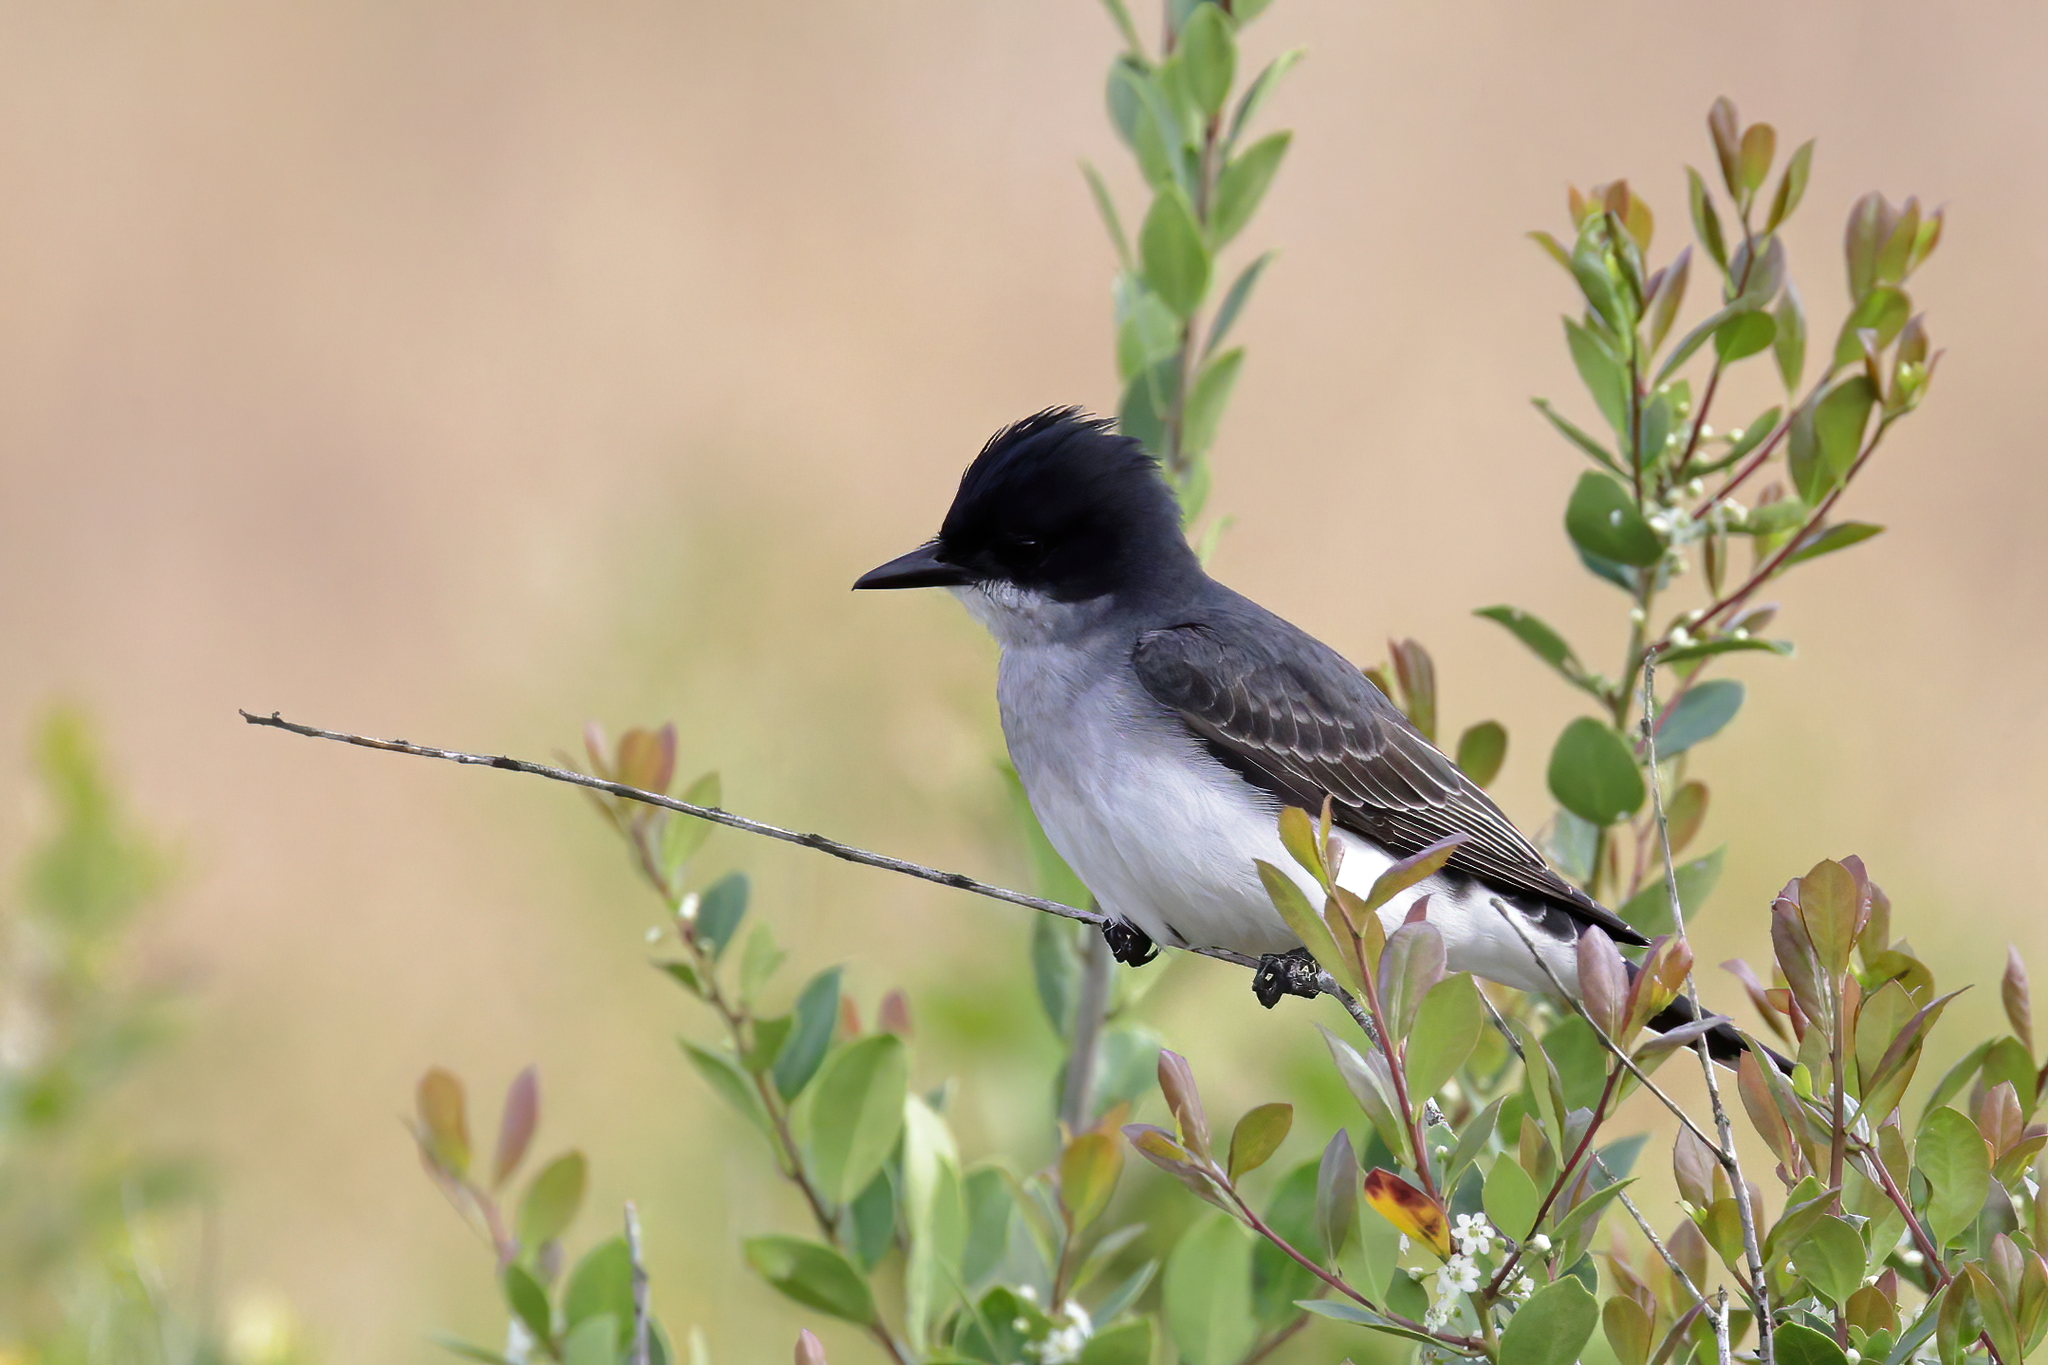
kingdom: Animalia
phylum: Chordata
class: Aves
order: Passeriformes
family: Tyrannidae
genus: Tyrannus
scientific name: Tyrannus tyrannus
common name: Eastern kingbird
